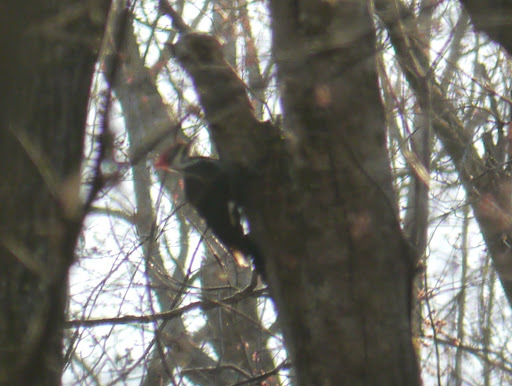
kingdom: Animalia
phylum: Chordata
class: Aves
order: Piciformes
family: Picidae
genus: Dryocopus
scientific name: Dryocopus pileatus
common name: Pileated woodpecker
